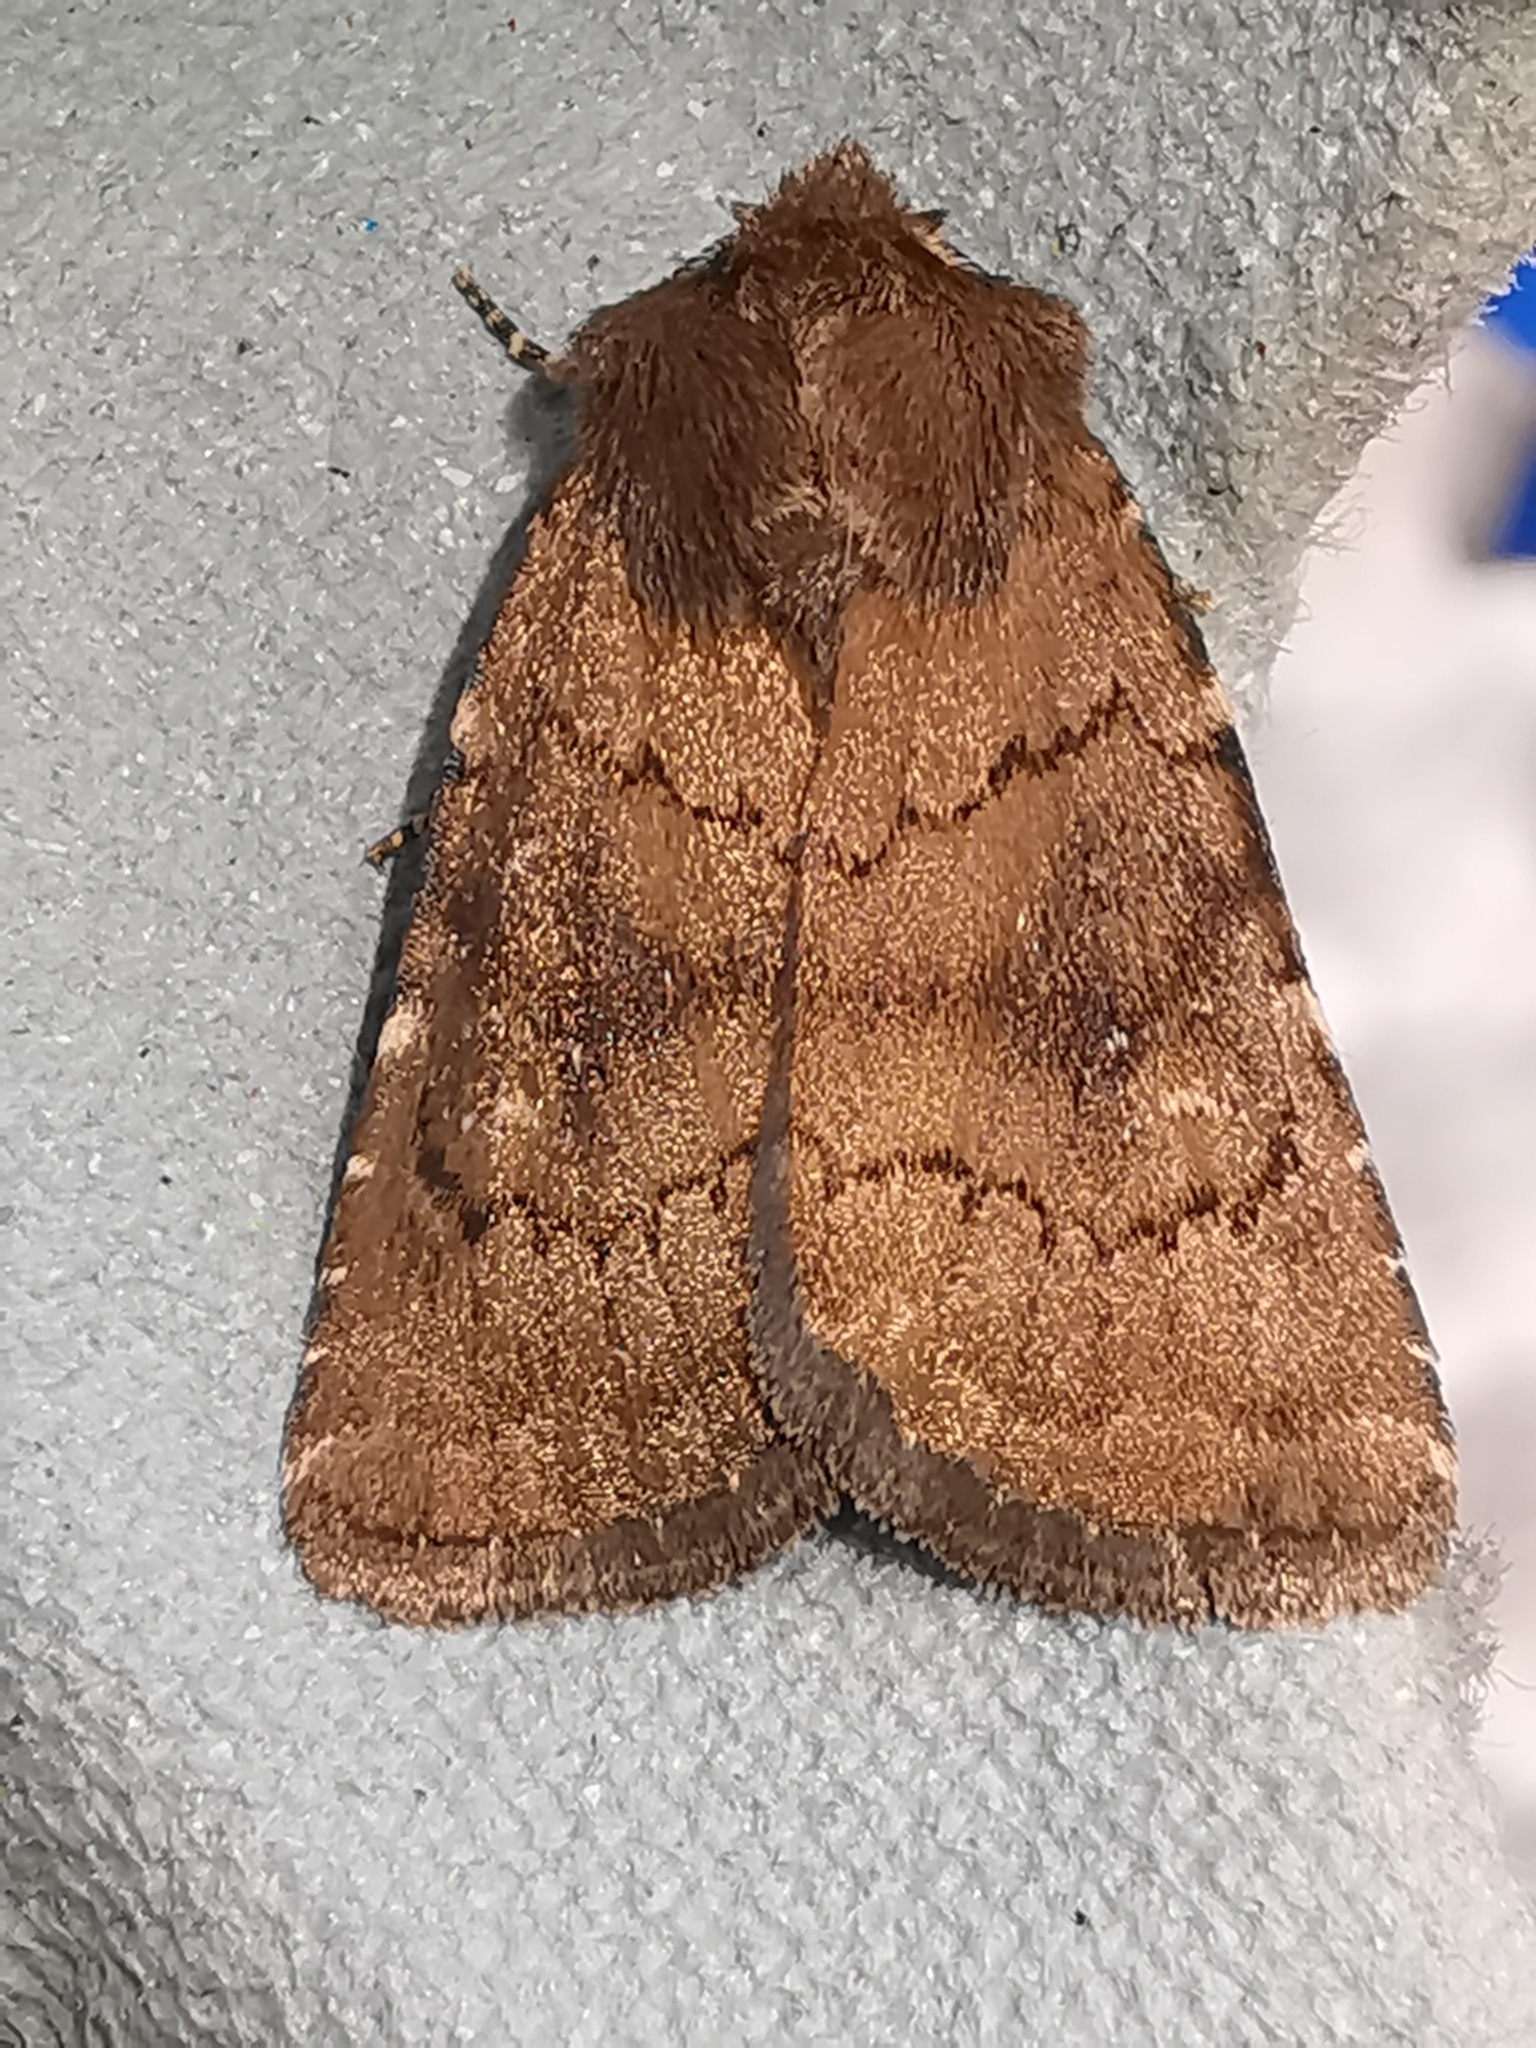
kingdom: Animalia
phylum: Arthropoda
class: Insecta
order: Lepidoptera
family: Noctuidae
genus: Charanyca
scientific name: Charanyca ferruginea
